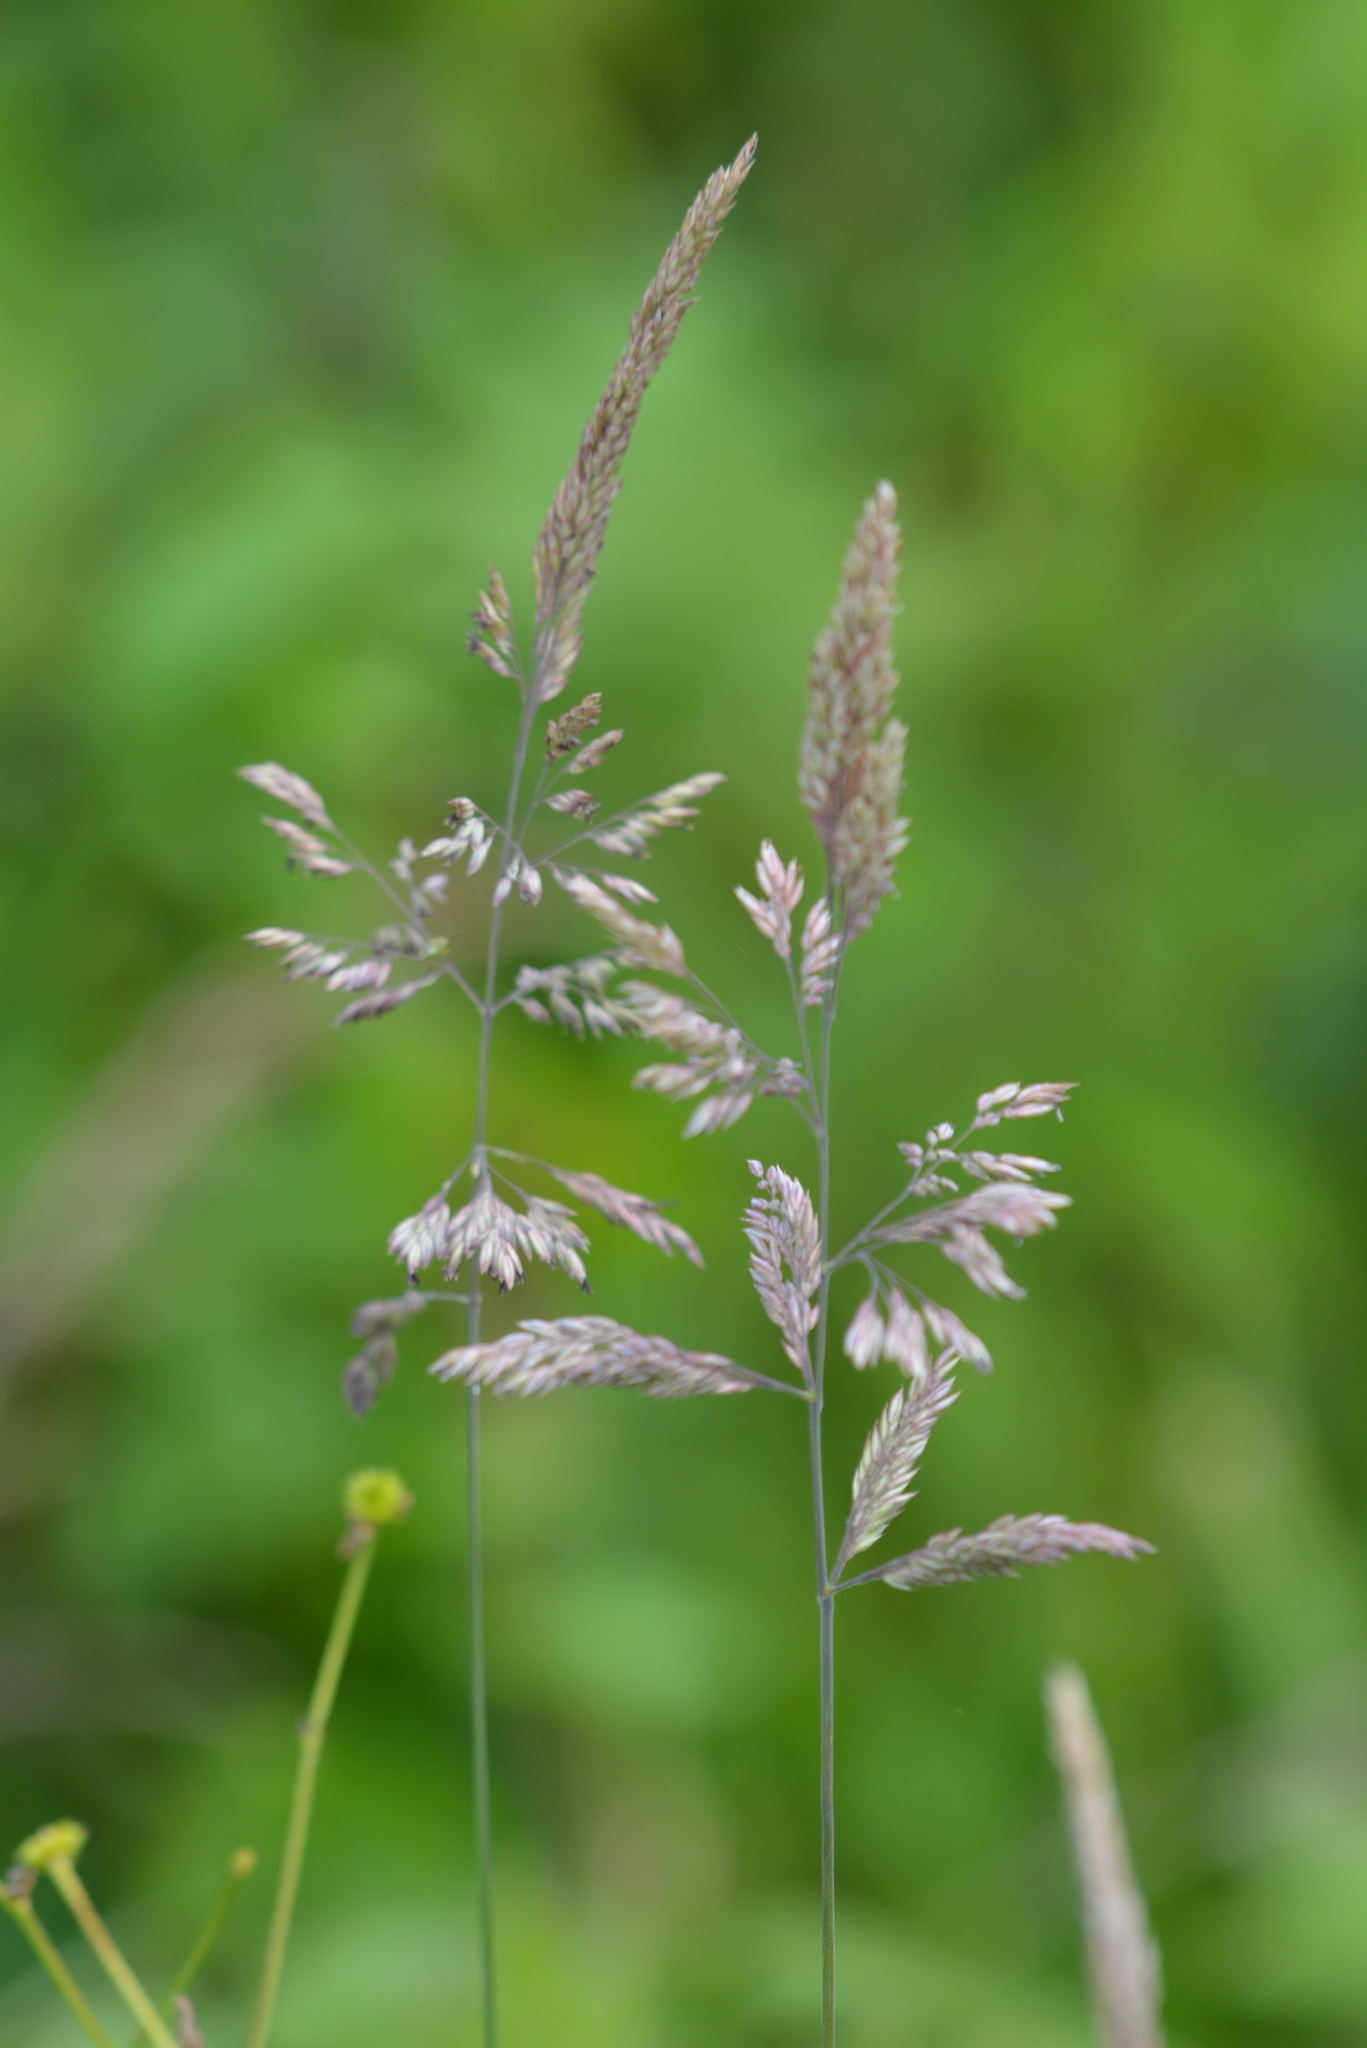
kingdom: Plantae
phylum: Tracheophyta
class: Liliopsida
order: Poales
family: Poaceae
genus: Holcus
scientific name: Holcus lanatus
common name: Yorkshire-fog
